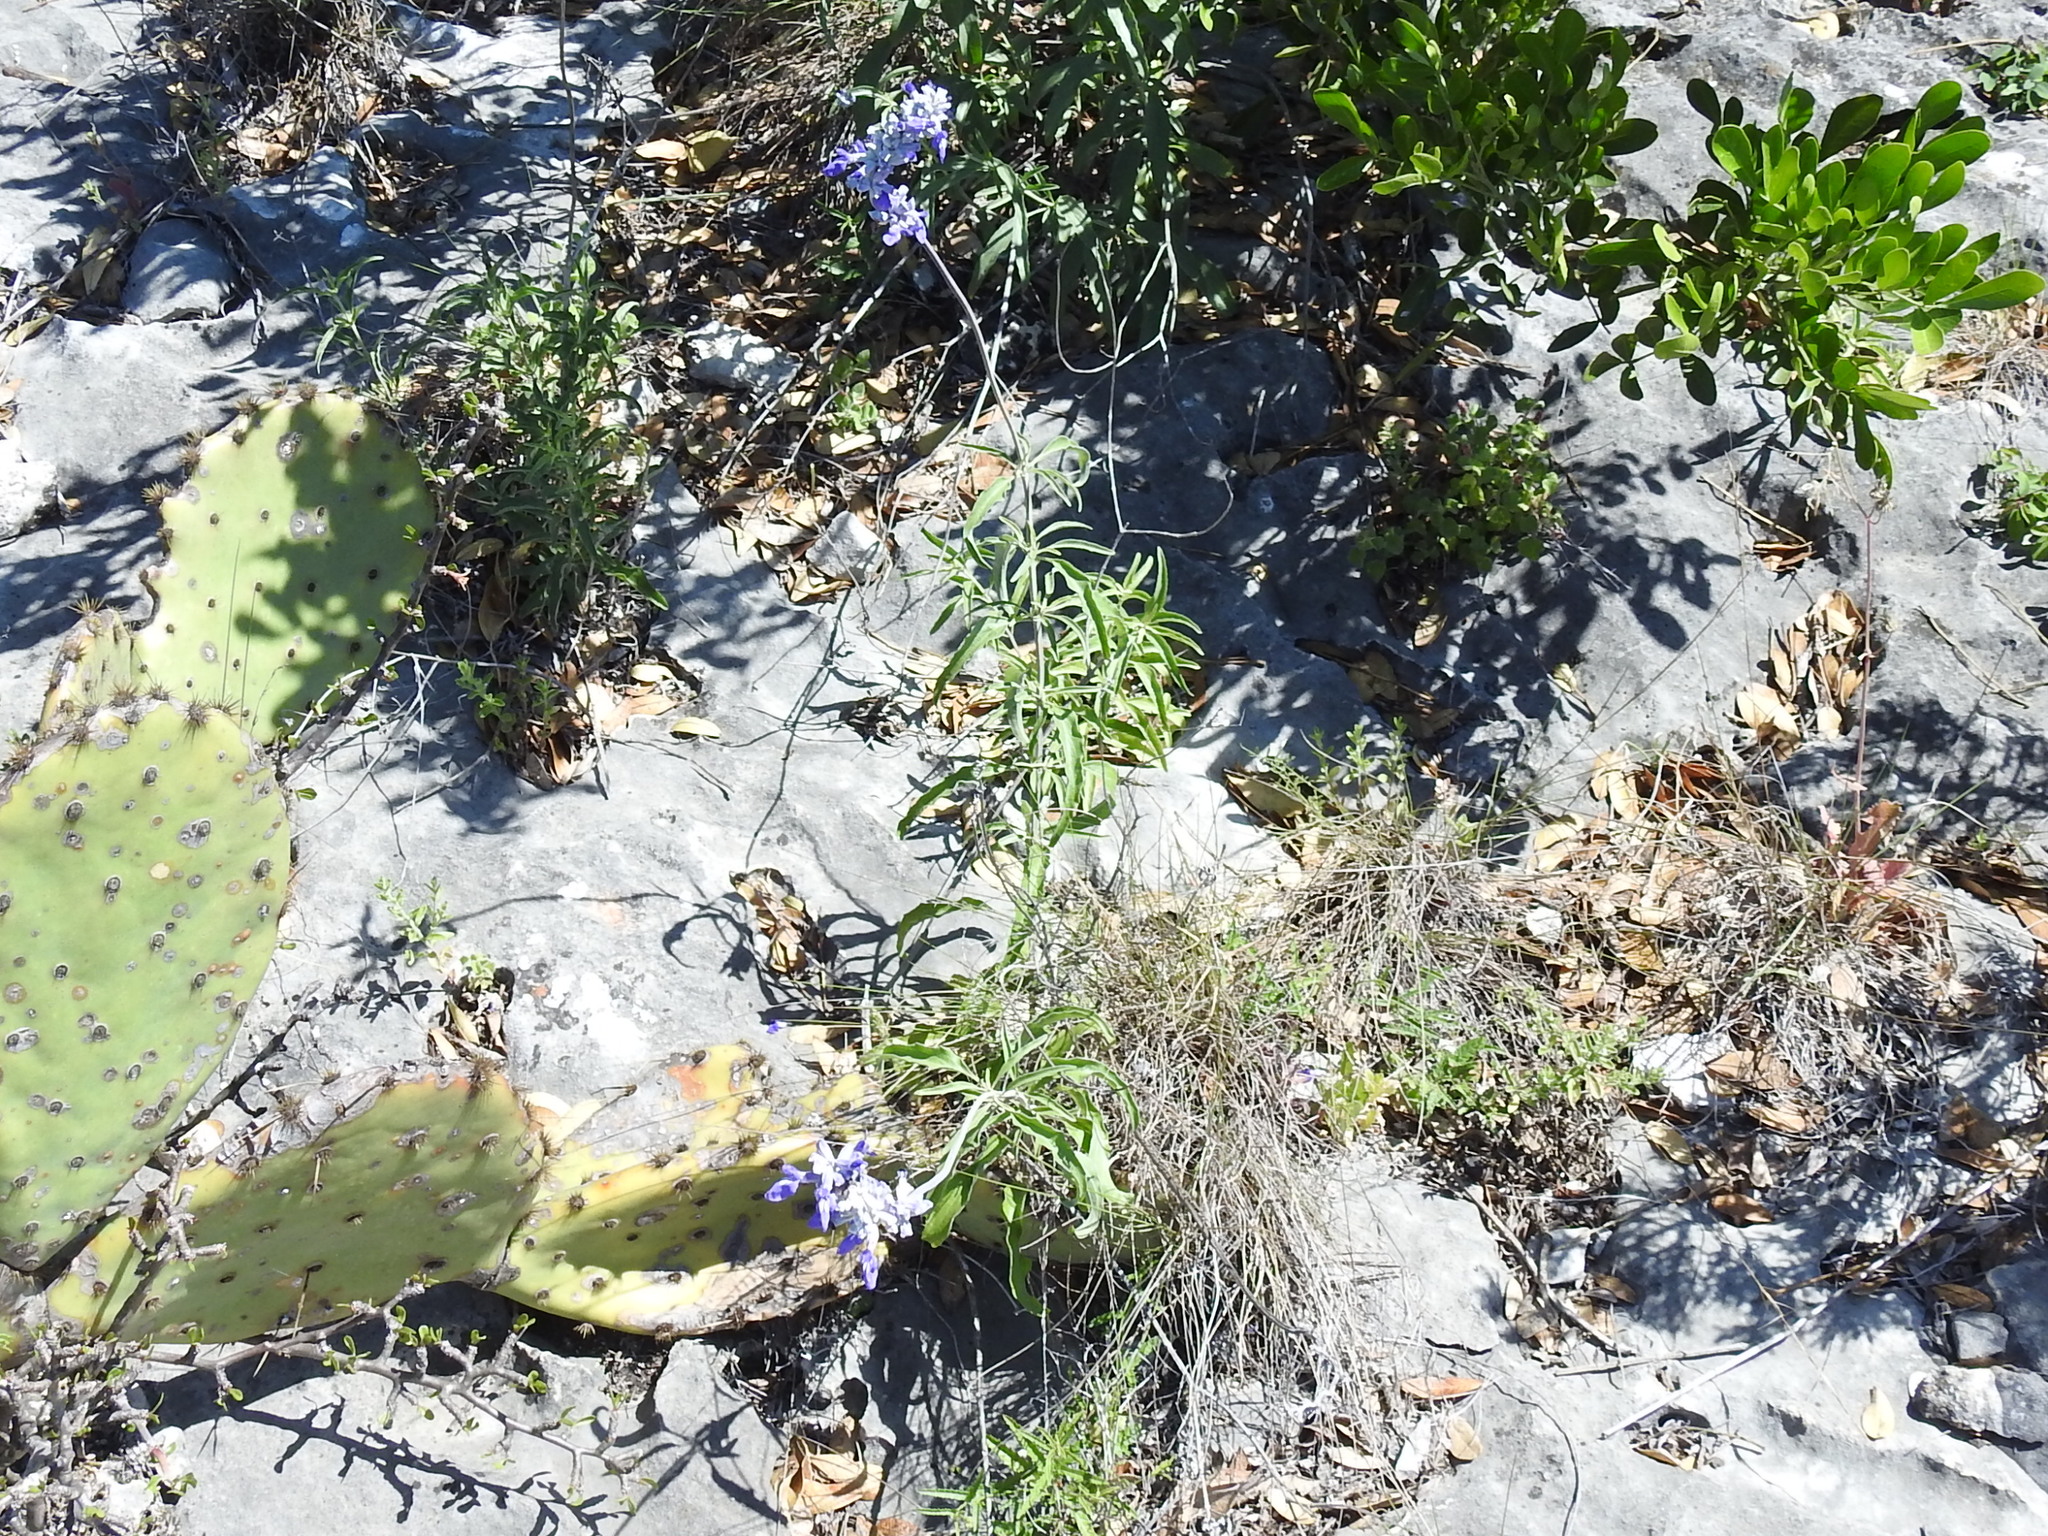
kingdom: Plantae
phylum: Tracheophyta
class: Magnoliopsida
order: Lamiales
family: Lamiaceae
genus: Salvia
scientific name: Salvia farinacea
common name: Mealy sage
